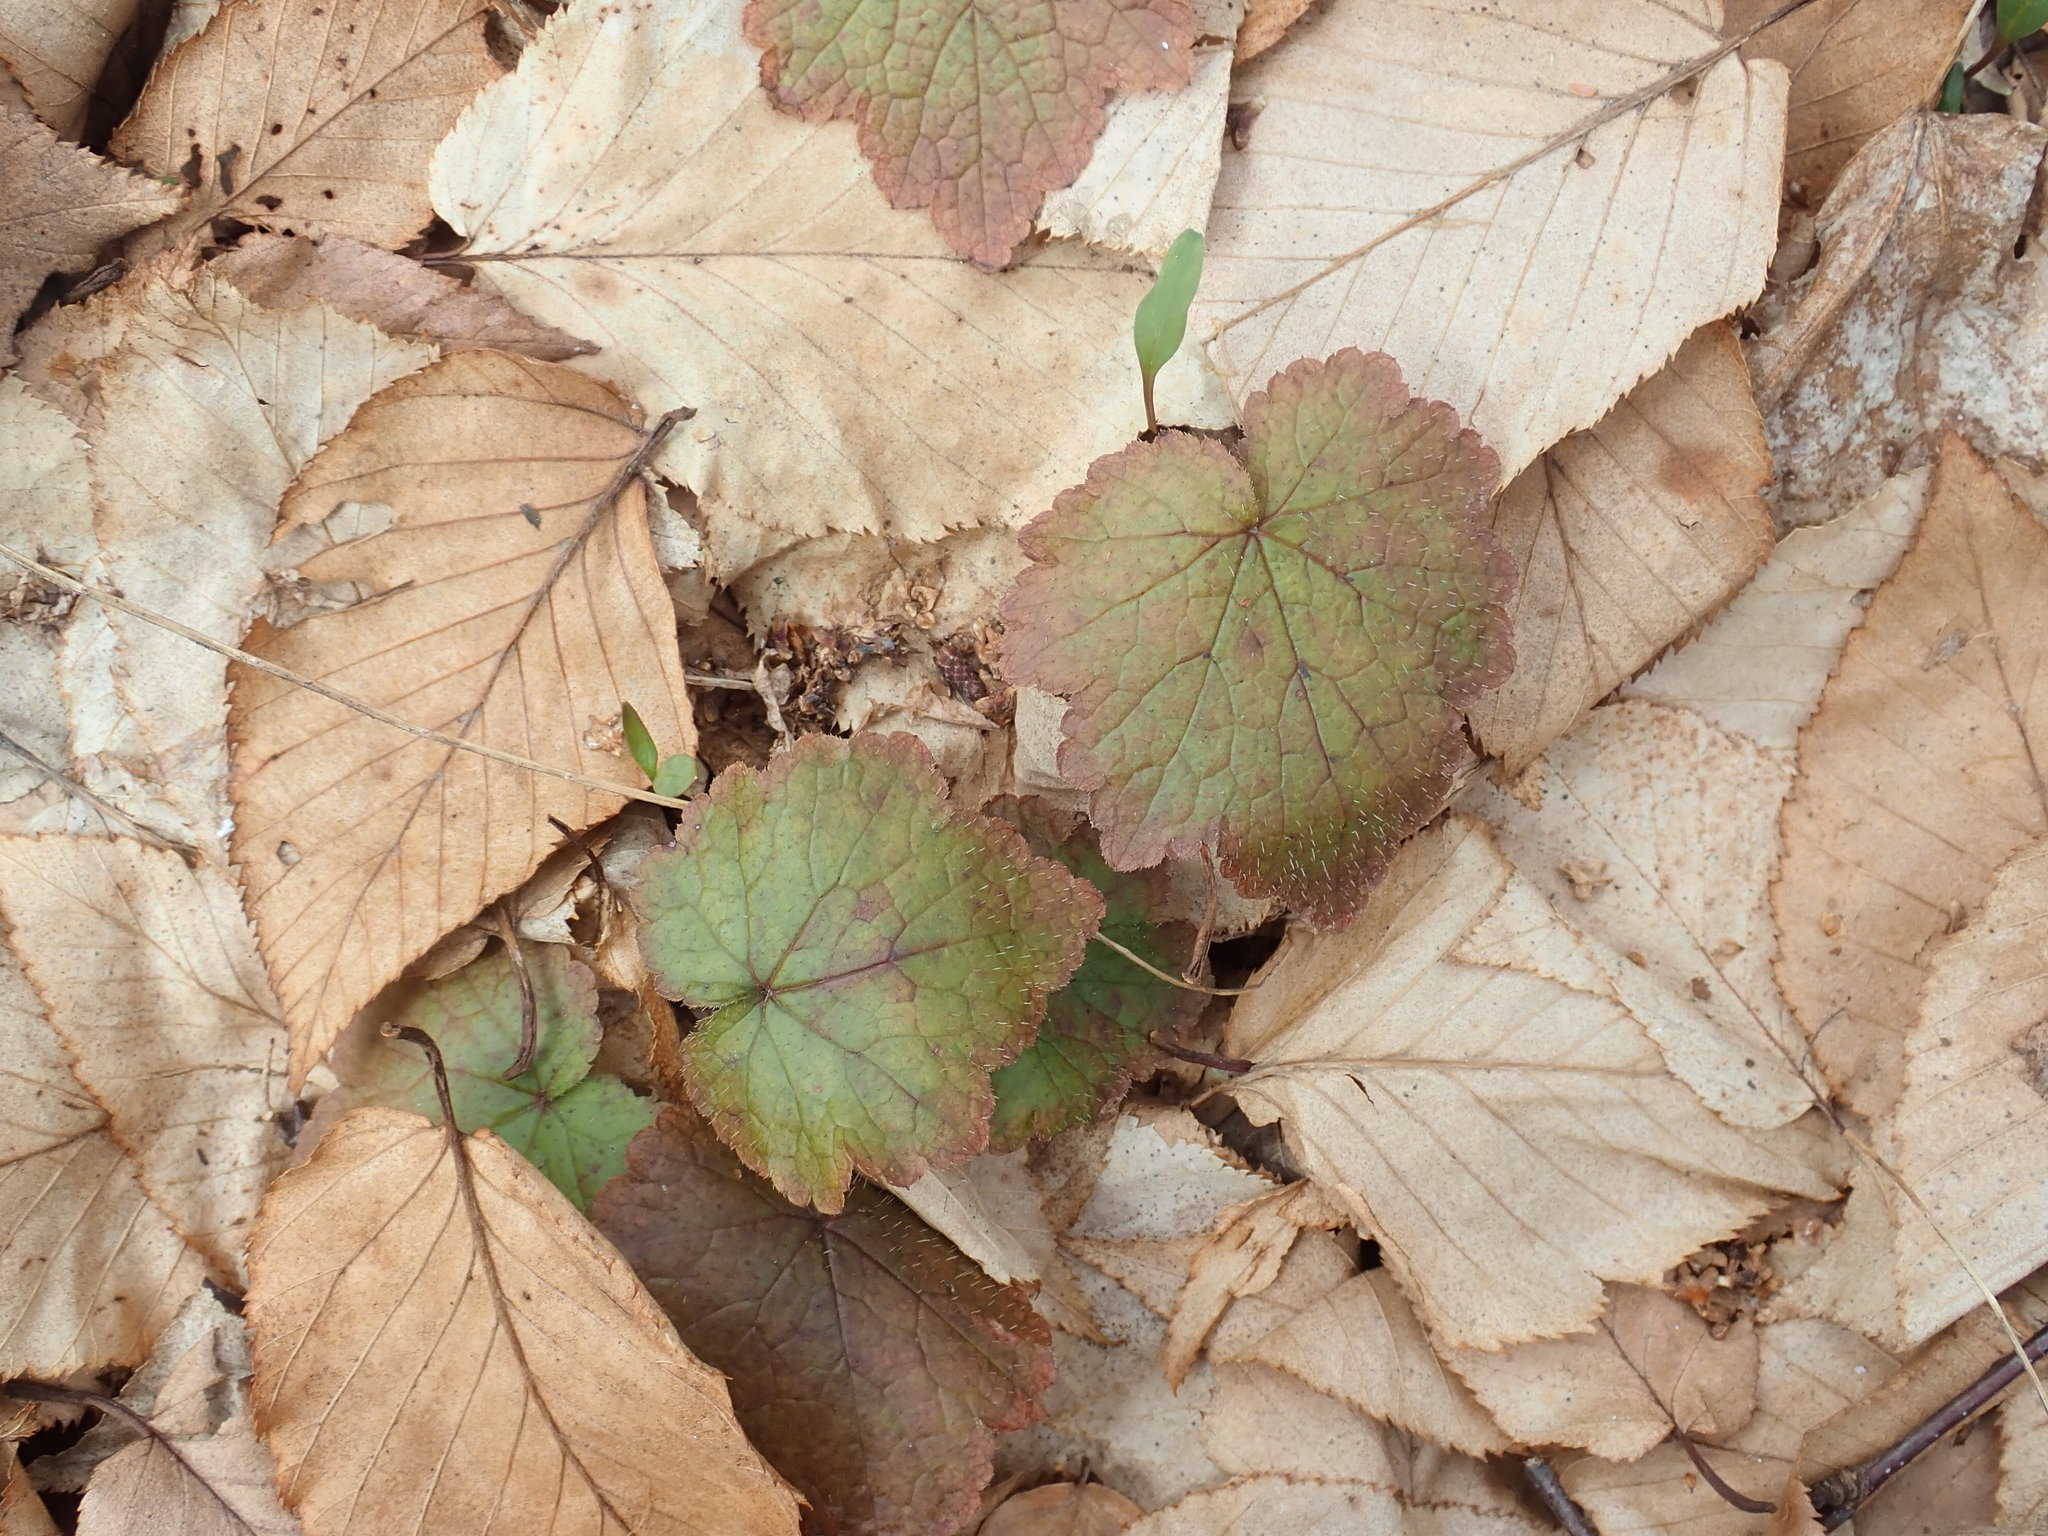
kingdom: Plantae
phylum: Tracheophyta
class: Magnoliopsida
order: Saxifragales
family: Saxifragaceae
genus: Tiarella
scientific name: Tiarella stolonifera
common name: Stoloniferous foamflower
